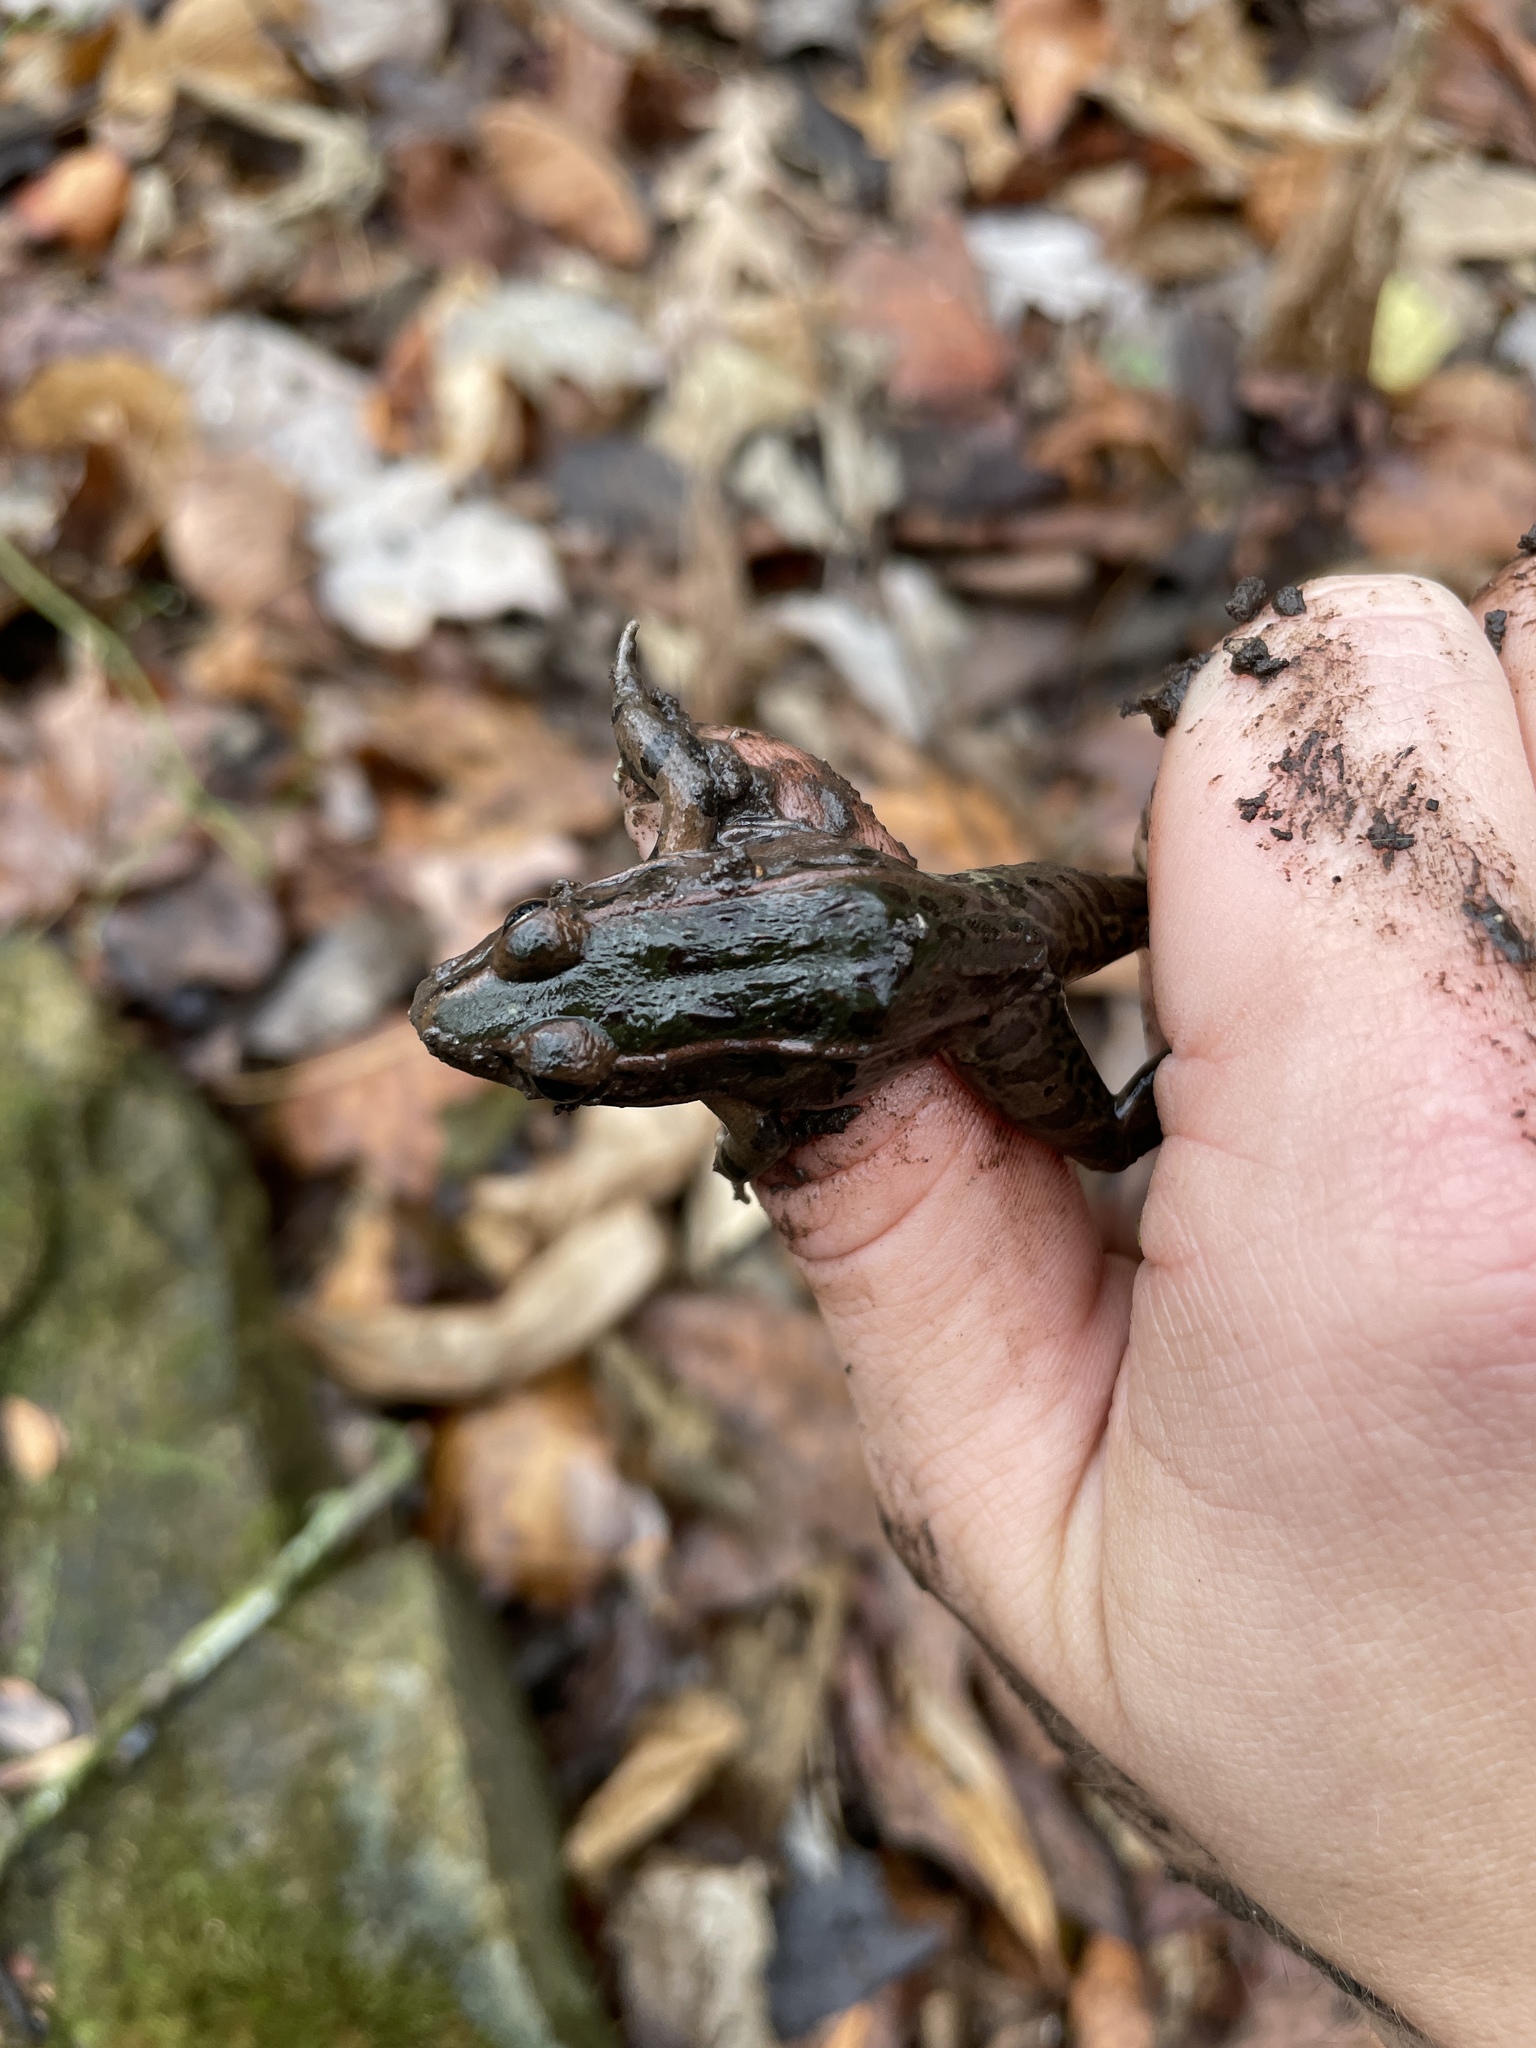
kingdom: Animalia
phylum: Chordata
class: Amphibia
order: Anura
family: Ranidae
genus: Lithobates
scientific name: Lithobates sphenocephalus
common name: Southern leopard frog
